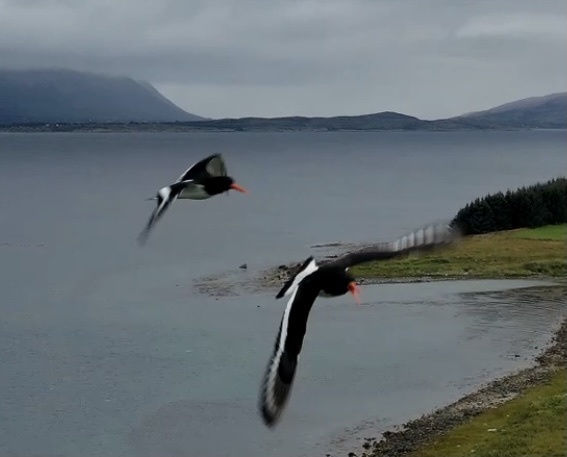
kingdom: Animalia
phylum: Chordata
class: Aves
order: Charadriiformes
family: Haematopodidae
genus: Haematopus
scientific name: Haematopus ostralegus
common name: Eurasian oystercatcher
